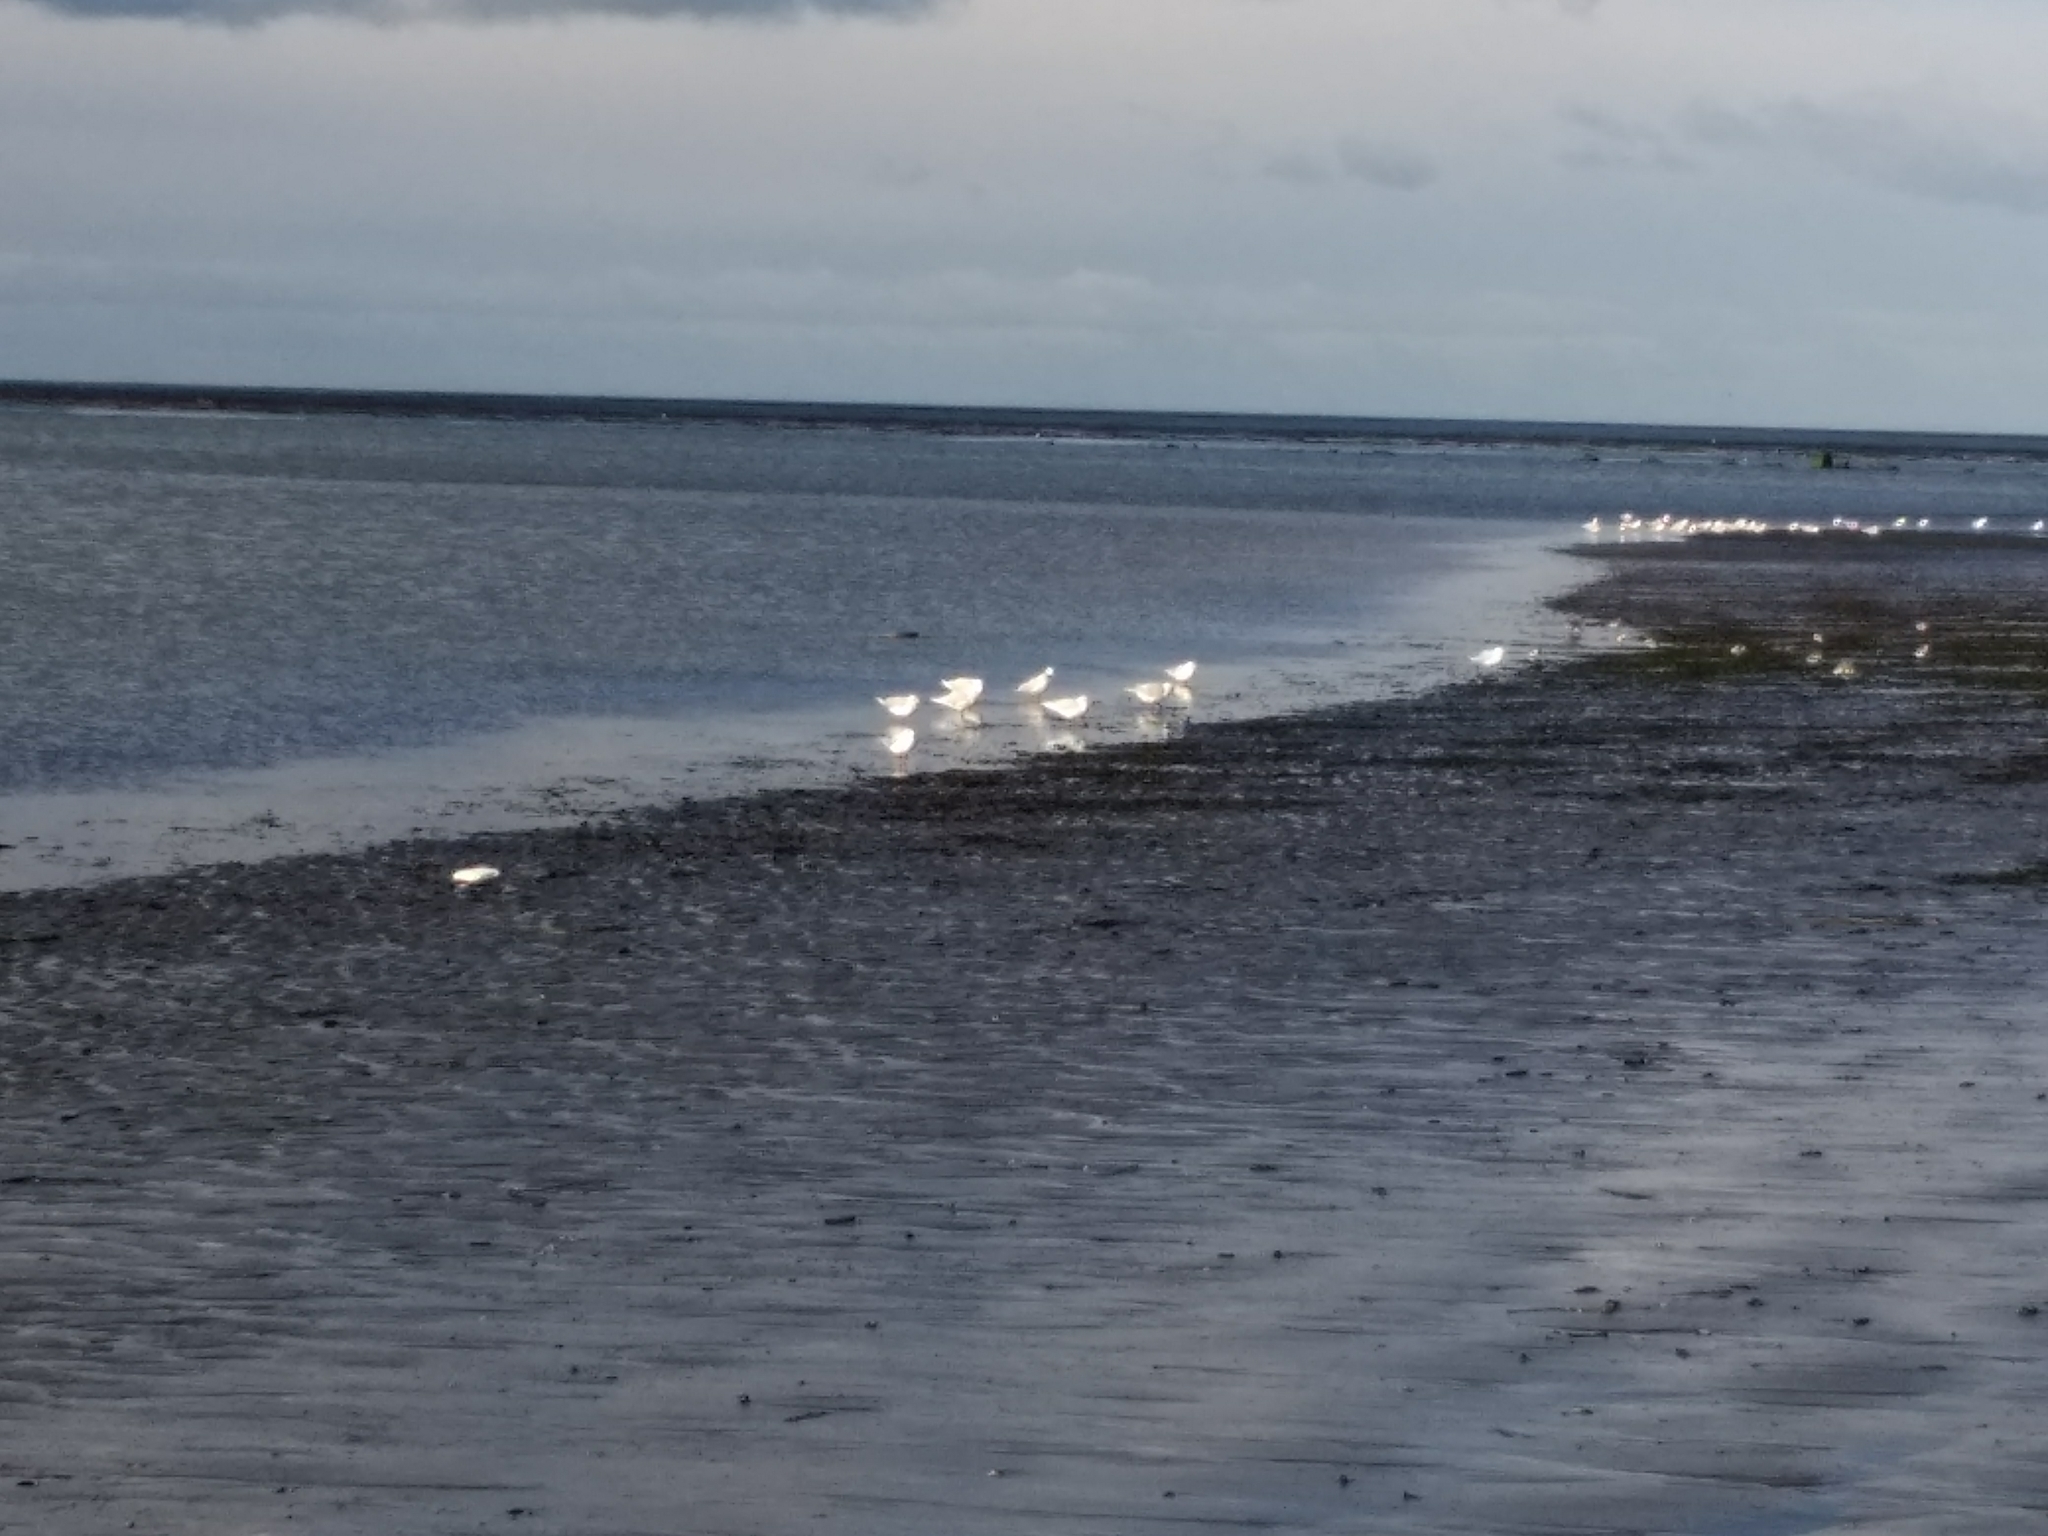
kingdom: Animalia
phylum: Chordata
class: Aves
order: Charadriiformes
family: Laridae
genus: Chroicocephalus
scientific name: Chroicocephalus maculipennis
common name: Brown-hooded gull
